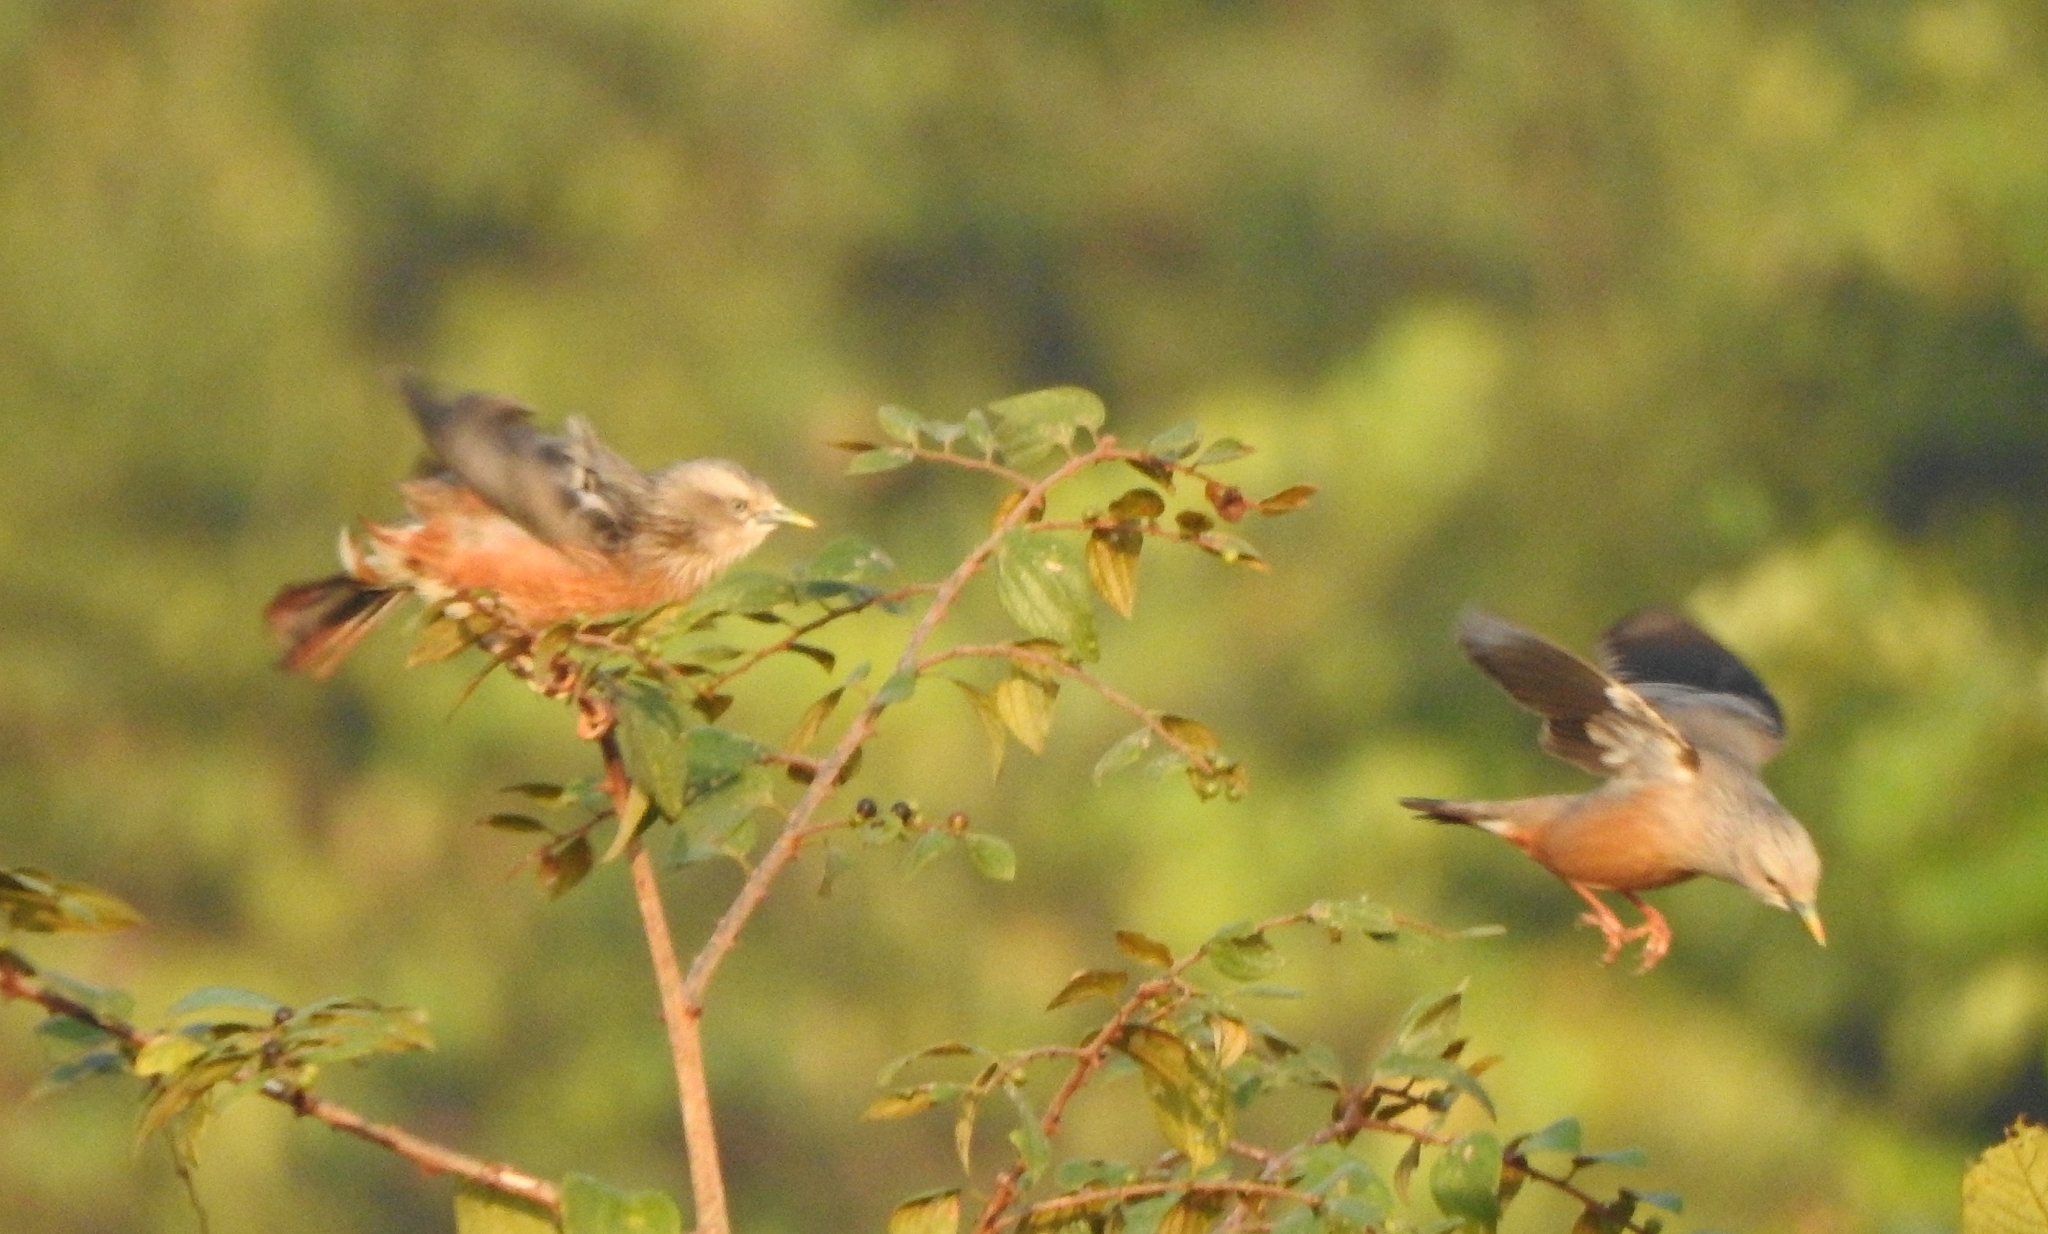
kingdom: Animalia
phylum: Chordata
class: Aves
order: Passeriformes
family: Sturnidae
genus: Sturnia
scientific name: Sturnia malabarica
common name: Chestnut-tailed starling
